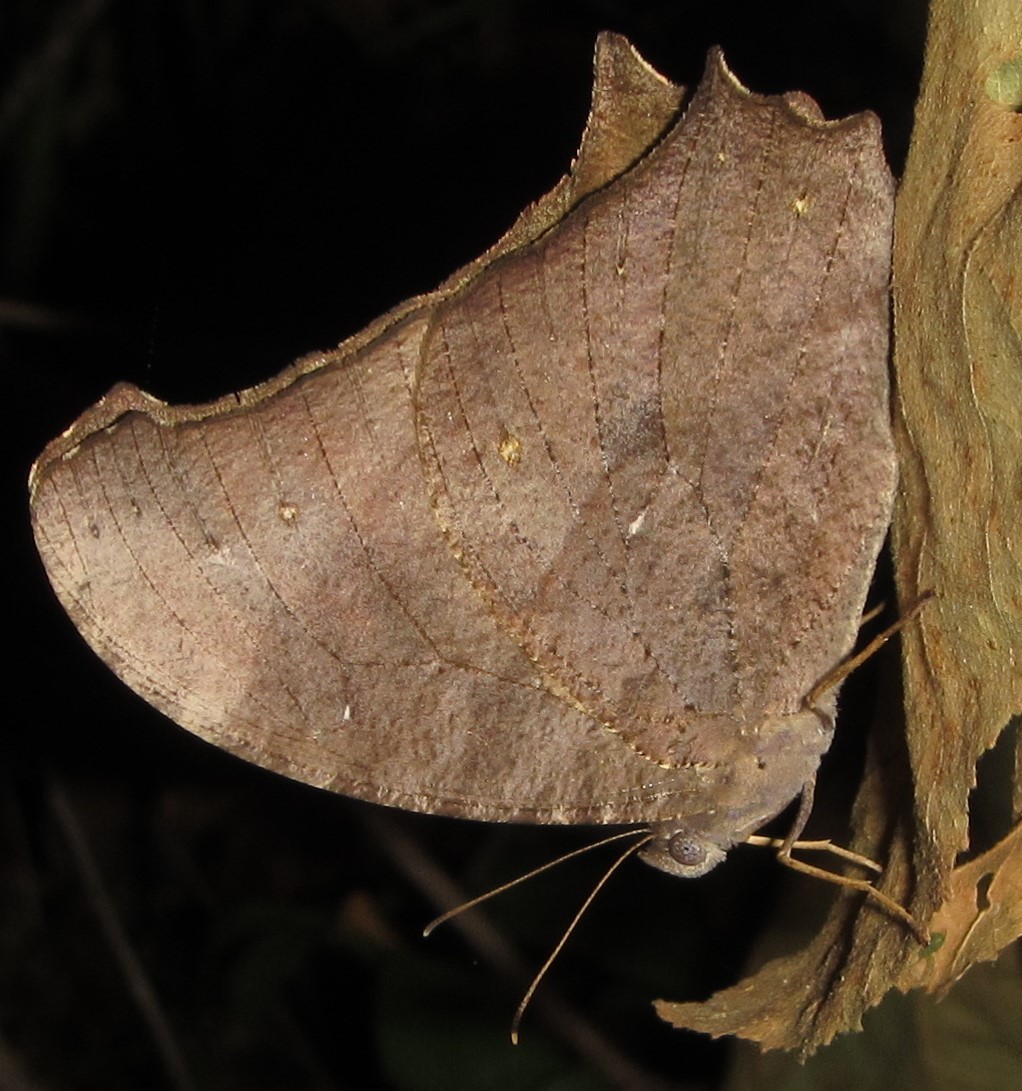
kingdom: Animalia
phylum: Arthropoda
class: Insecta
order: Lepidoptera
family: Nymphalidae
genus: Melanitis
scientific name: Melanitis leda
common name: Twilight brown
